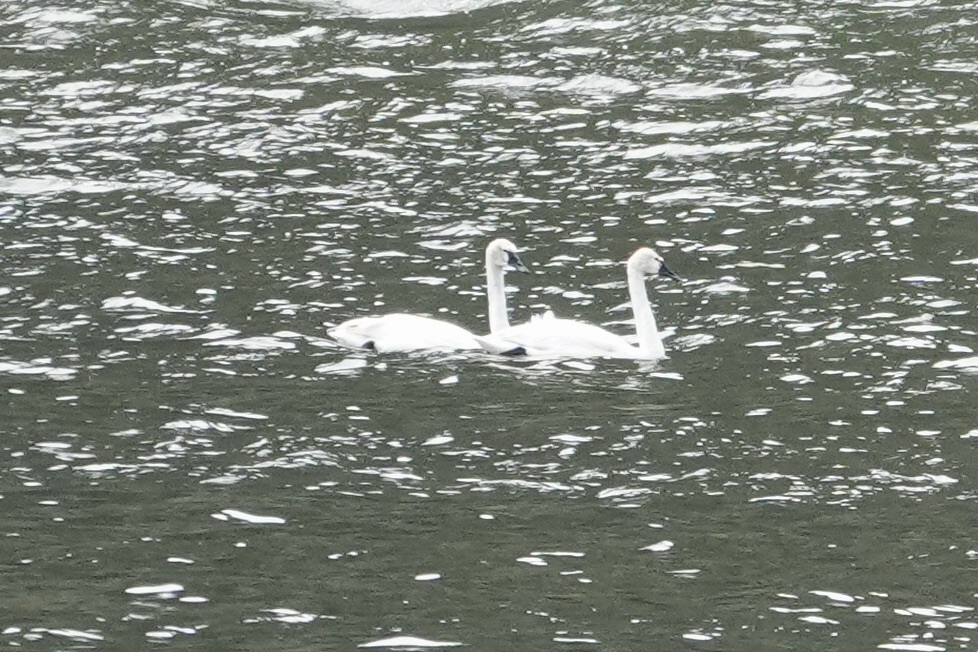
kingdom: Animalia
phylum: Chordata
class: Aves
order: Anseriformes
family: Anatidae
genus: Cygnus
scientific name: Cygnus buccinator
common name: Trumpeter swan
